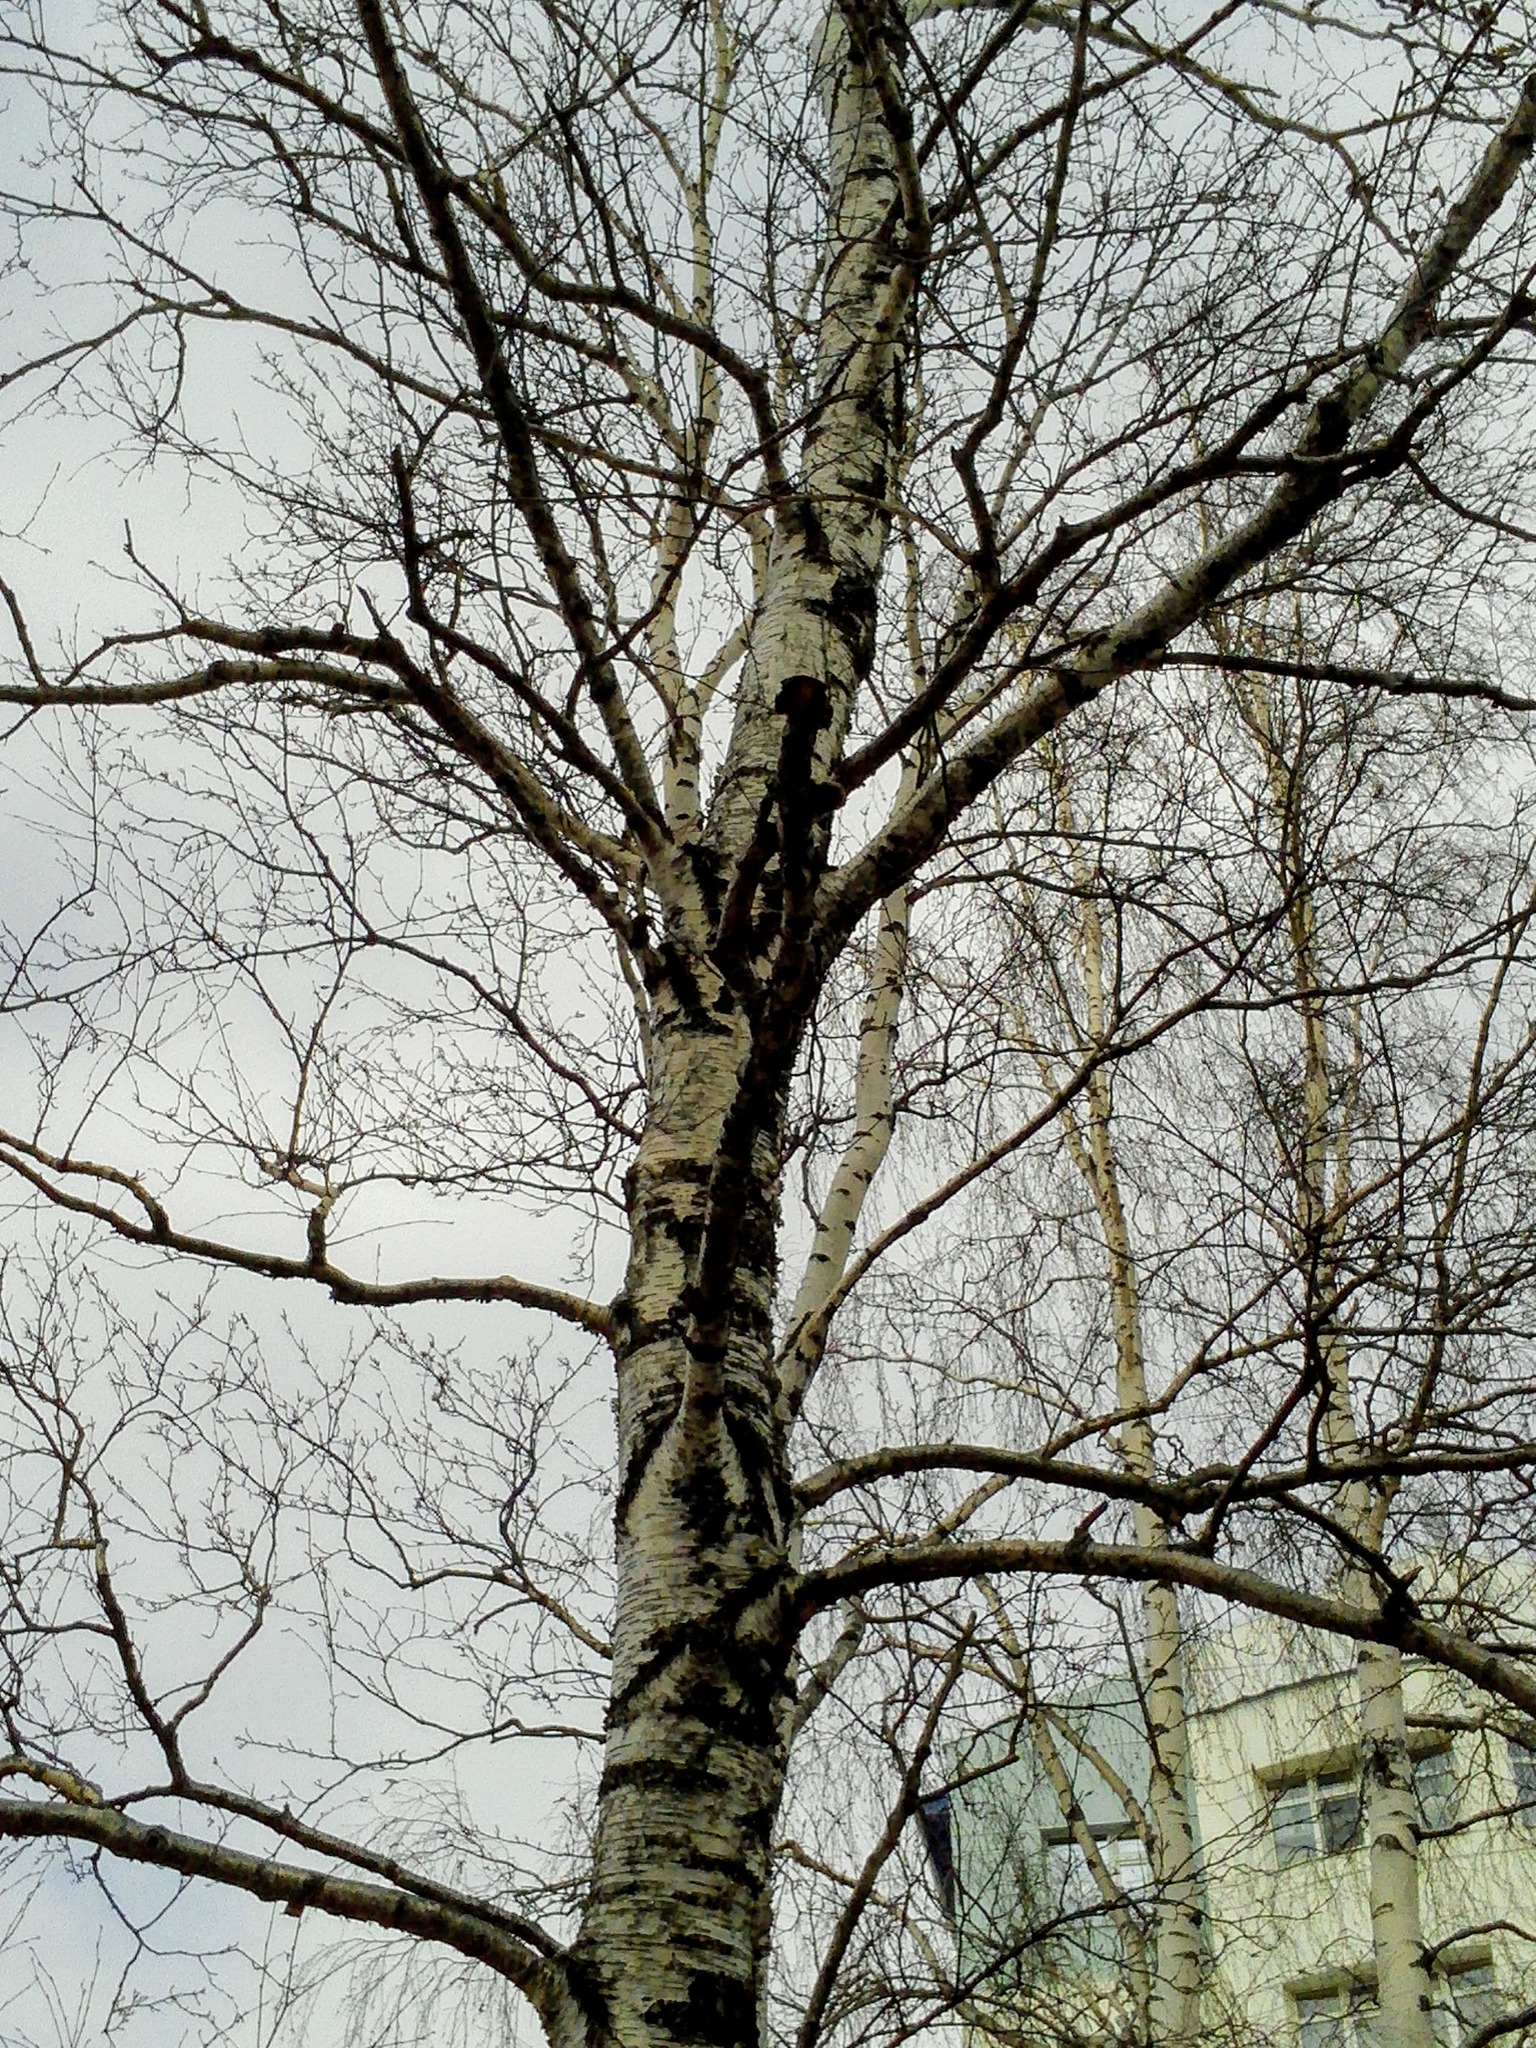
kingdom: Plantae
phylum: Tracheophyta
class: Magnoliopsida
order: Fagales
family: Betulaceae
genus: Betula
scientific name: Betula pendula
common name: Silver birch
